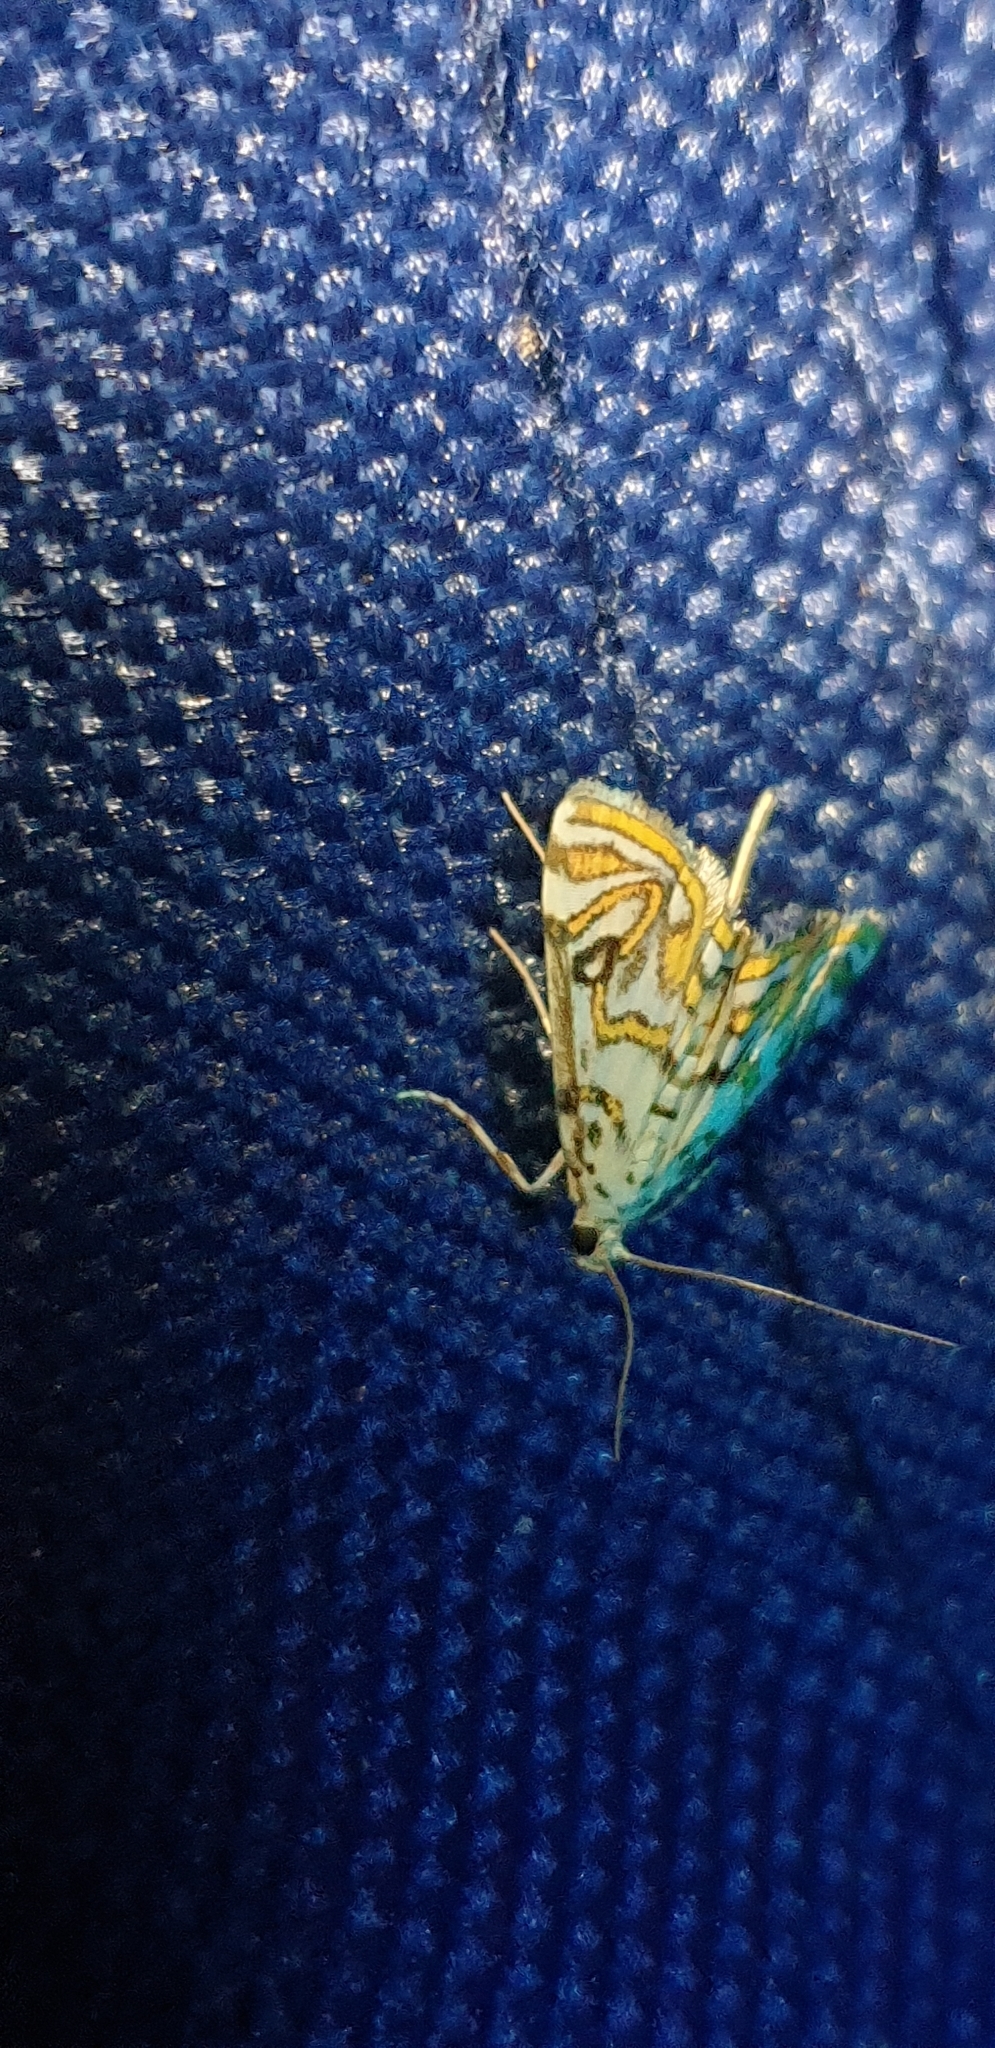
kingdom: Animalia
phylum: Arthropoda
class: Insecta
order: Lepidoptera
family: Crambidae
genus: Parapoynx
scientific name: Parapoynx polydectalis
